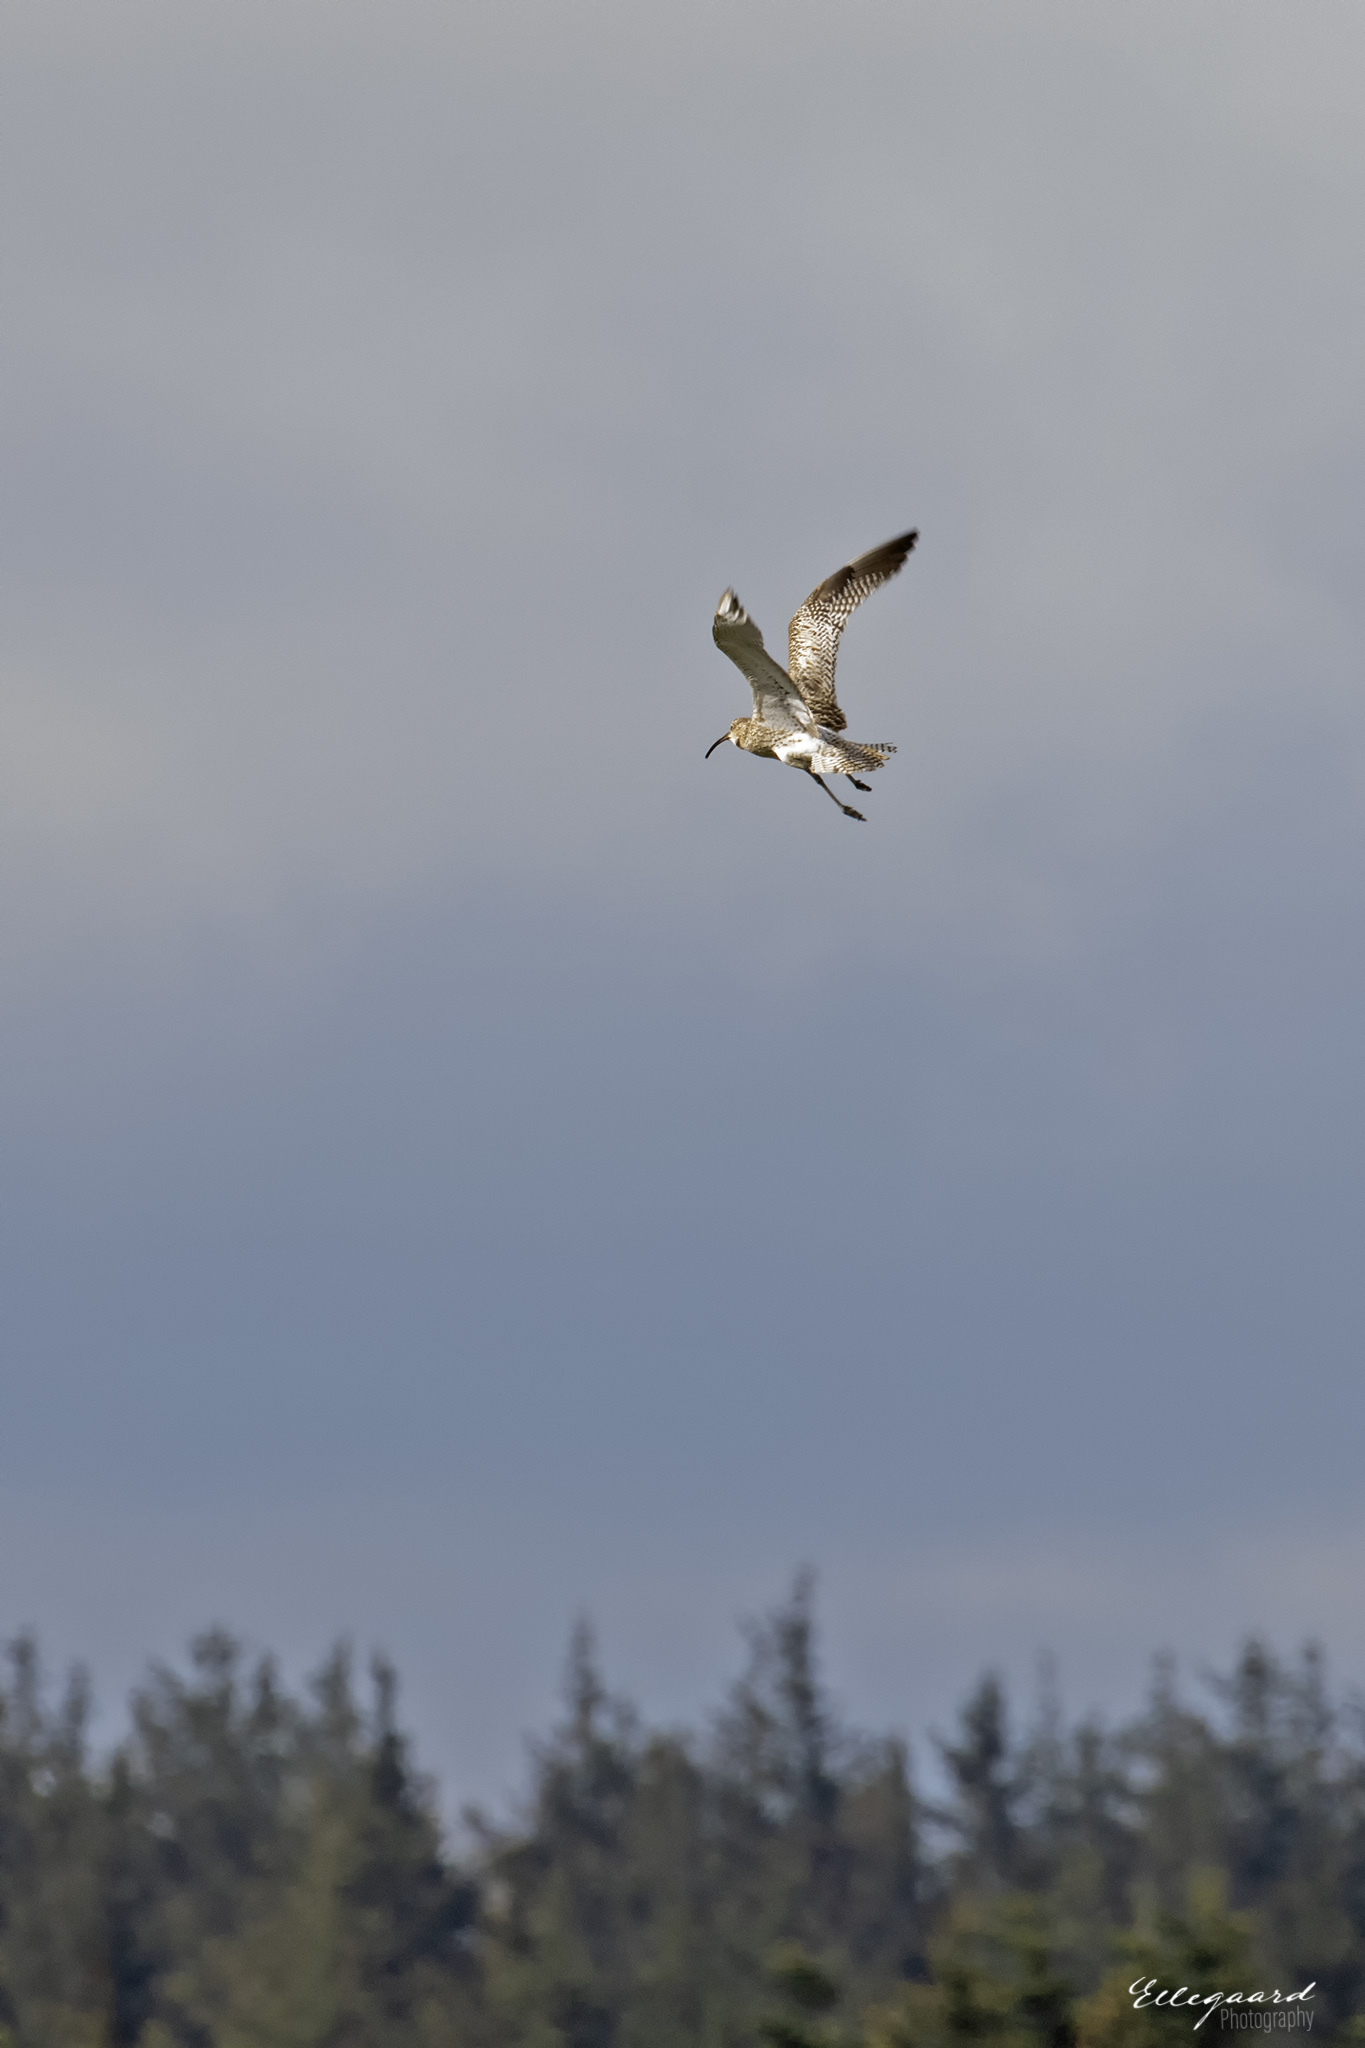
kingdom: Animalia
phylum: Chordata
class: Aves
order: Charadriiformes
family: Scolopacidae
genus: Numenius
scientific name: Numenius arquata
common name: Eurasian curlew
